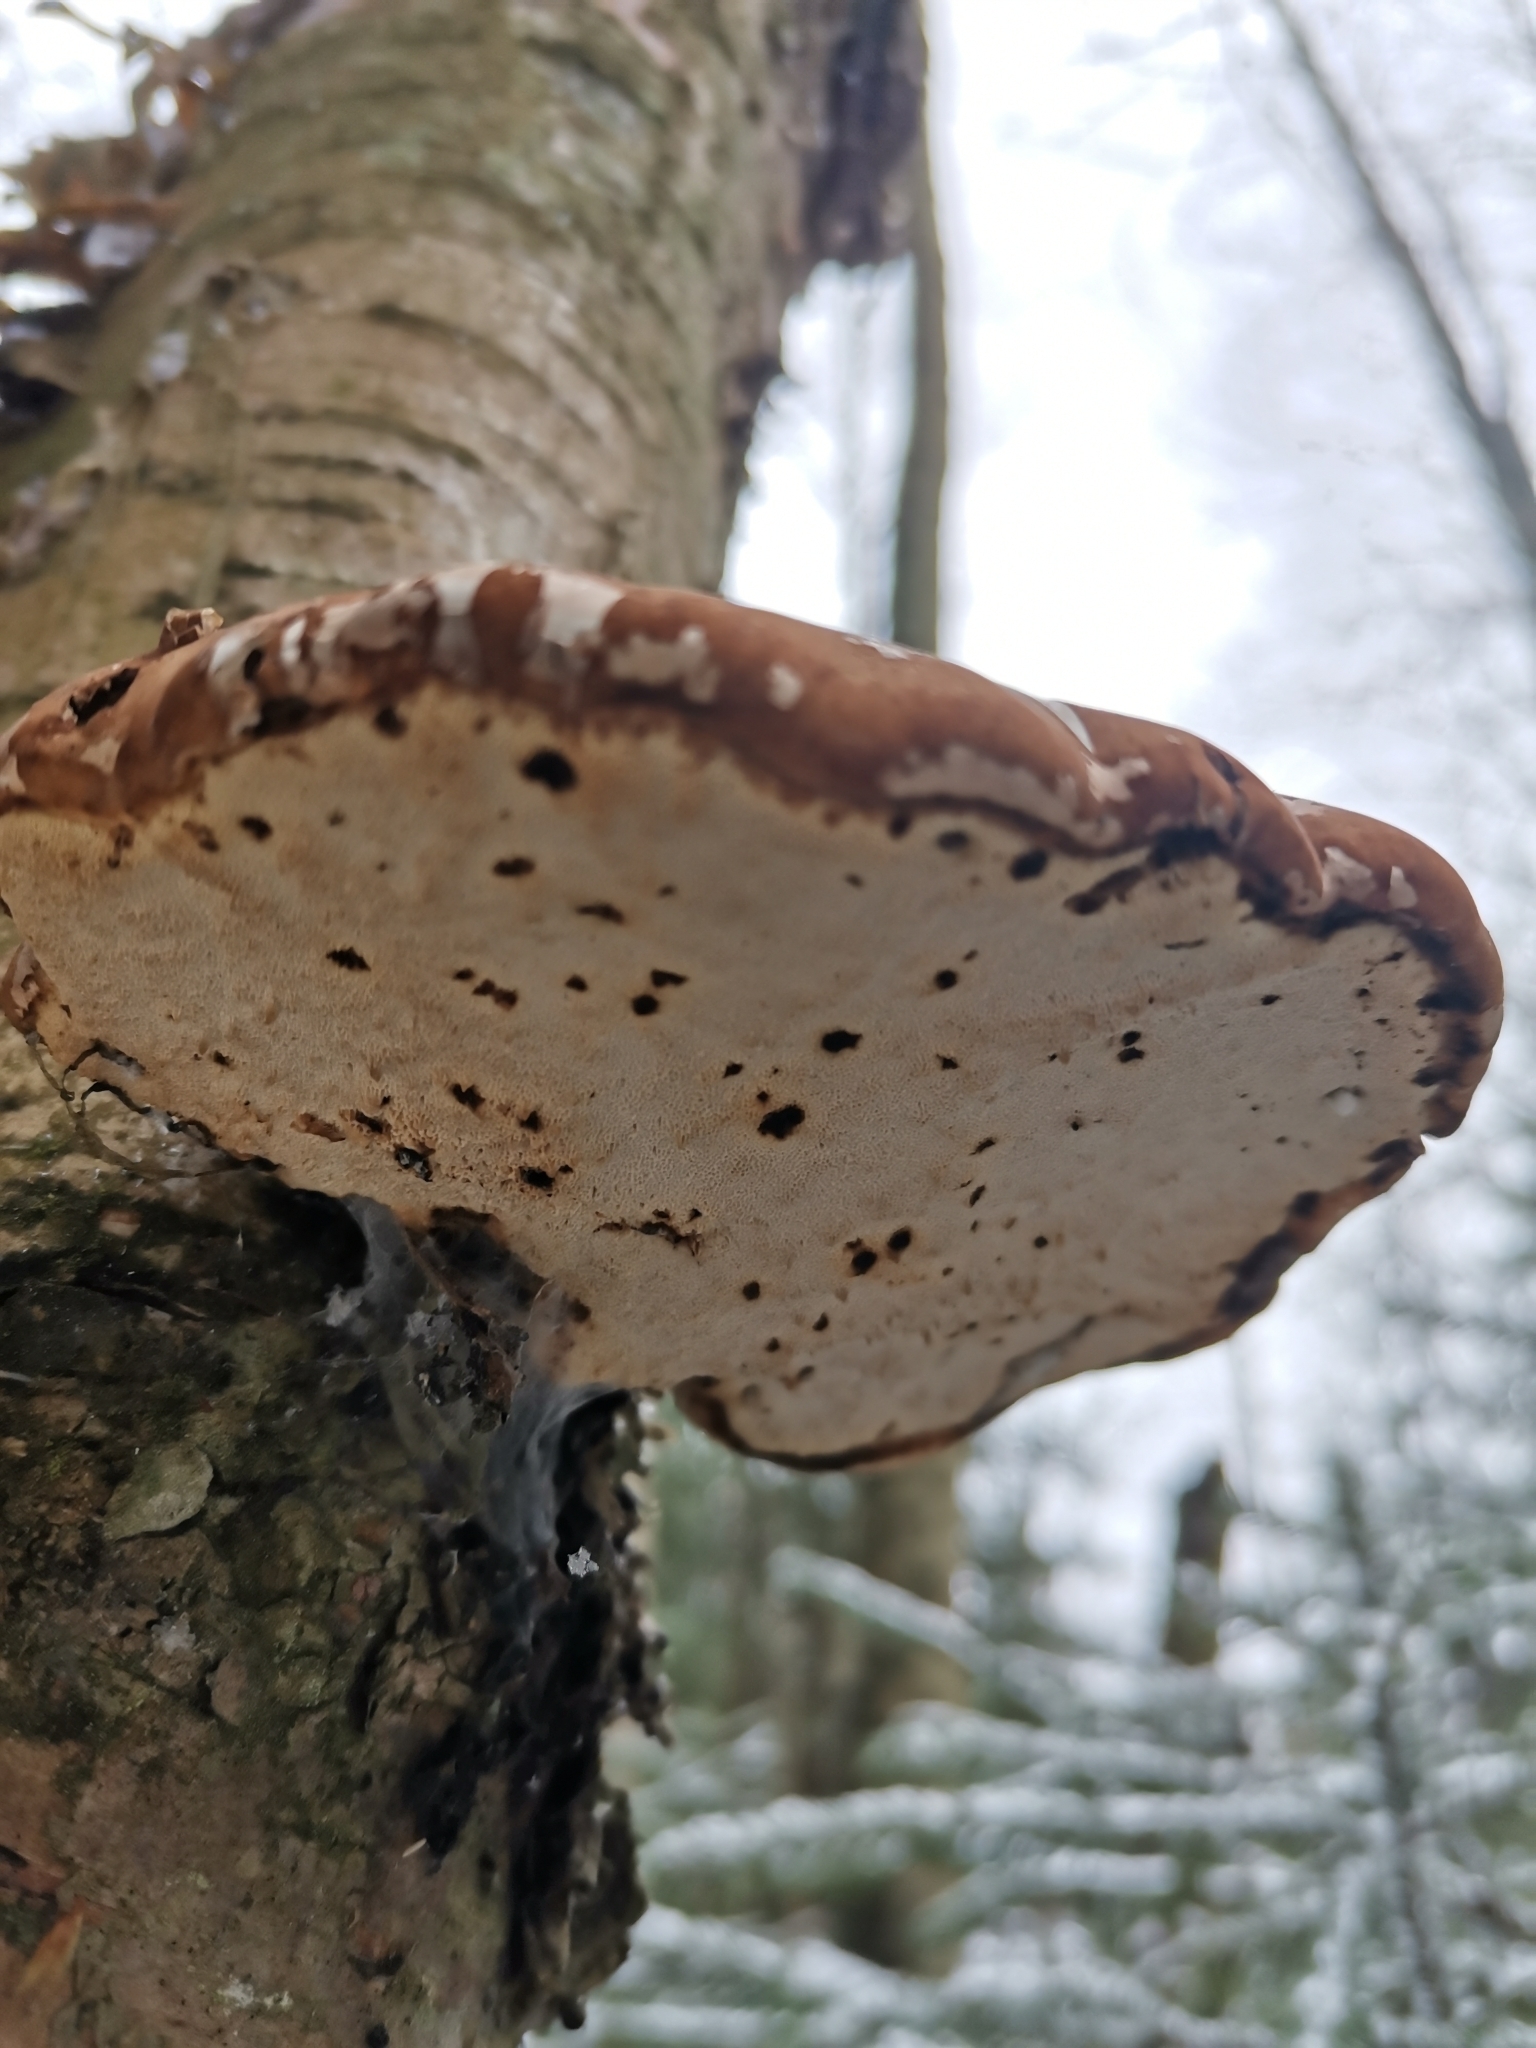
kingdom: Fungi
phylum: Basidiomycota
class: Agaricomycetes
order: Polyporales
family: Fomitopsidaceae
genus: Fomitopsis
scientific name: Fomitopsis betulina
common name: Birch polypore
